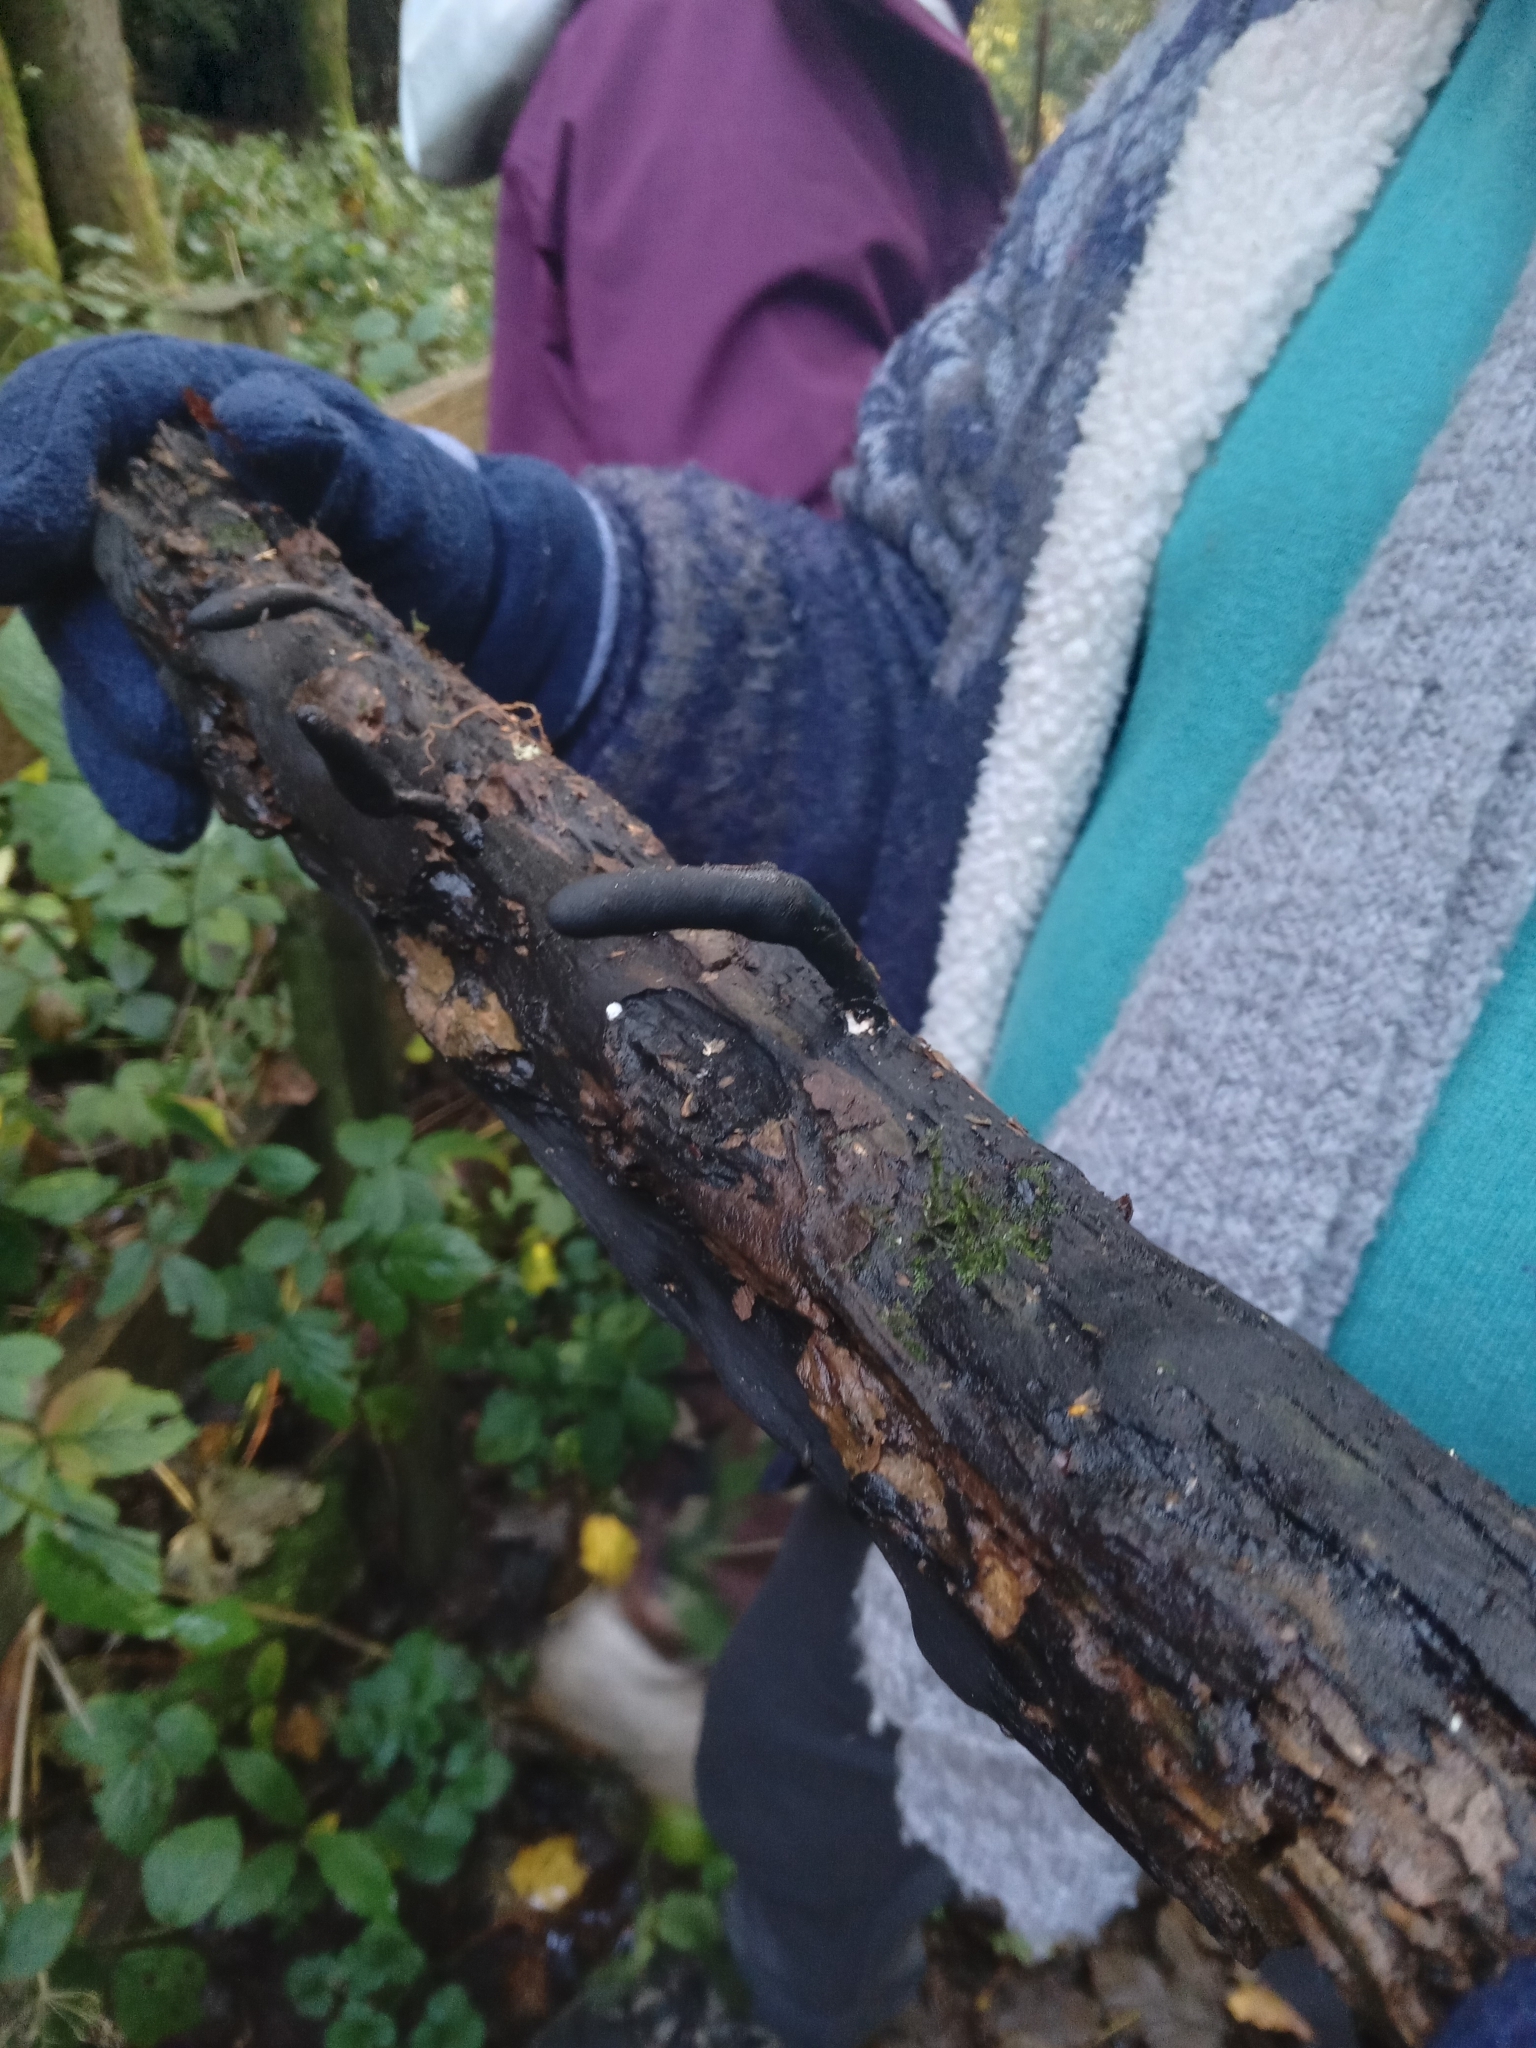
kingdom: Fungi
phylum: Ascomycota
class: Sordariomycetes
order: Xylariales
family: Xylariaceae
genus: Xylaria
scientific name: Xylaria longipes
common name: Dead moll's fingers
